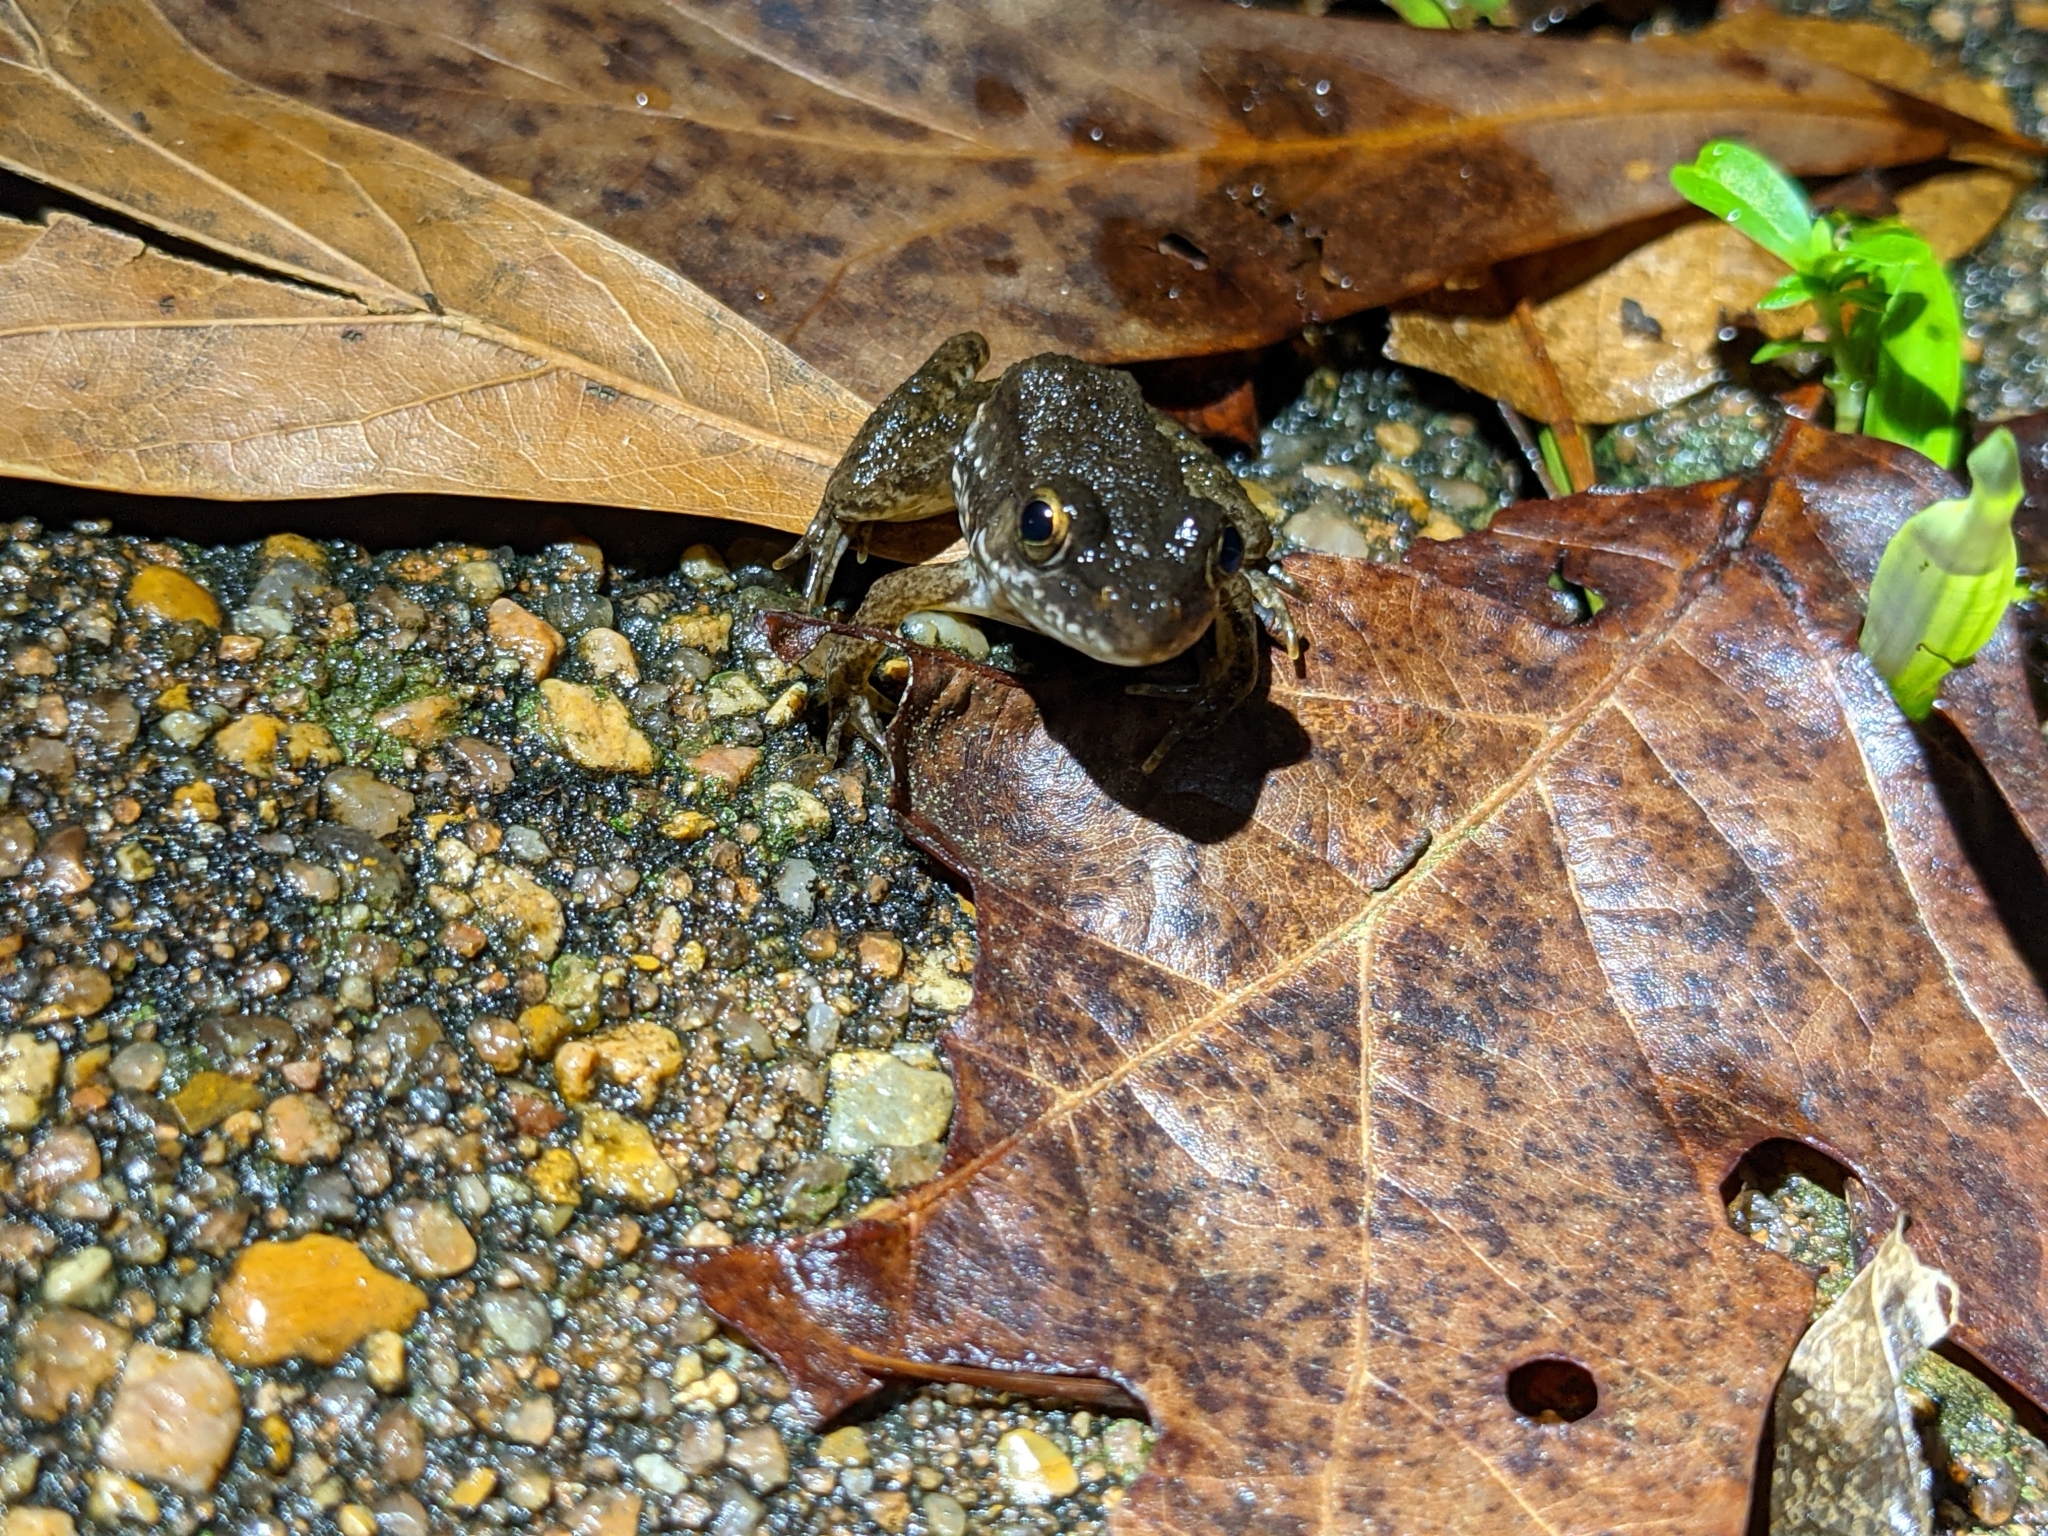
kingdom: Animalia
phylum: Chordata
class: Amphibia
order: Anura
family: Ranidae
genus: Lithobates
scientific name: Lithobates clamitans
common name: Green frog
